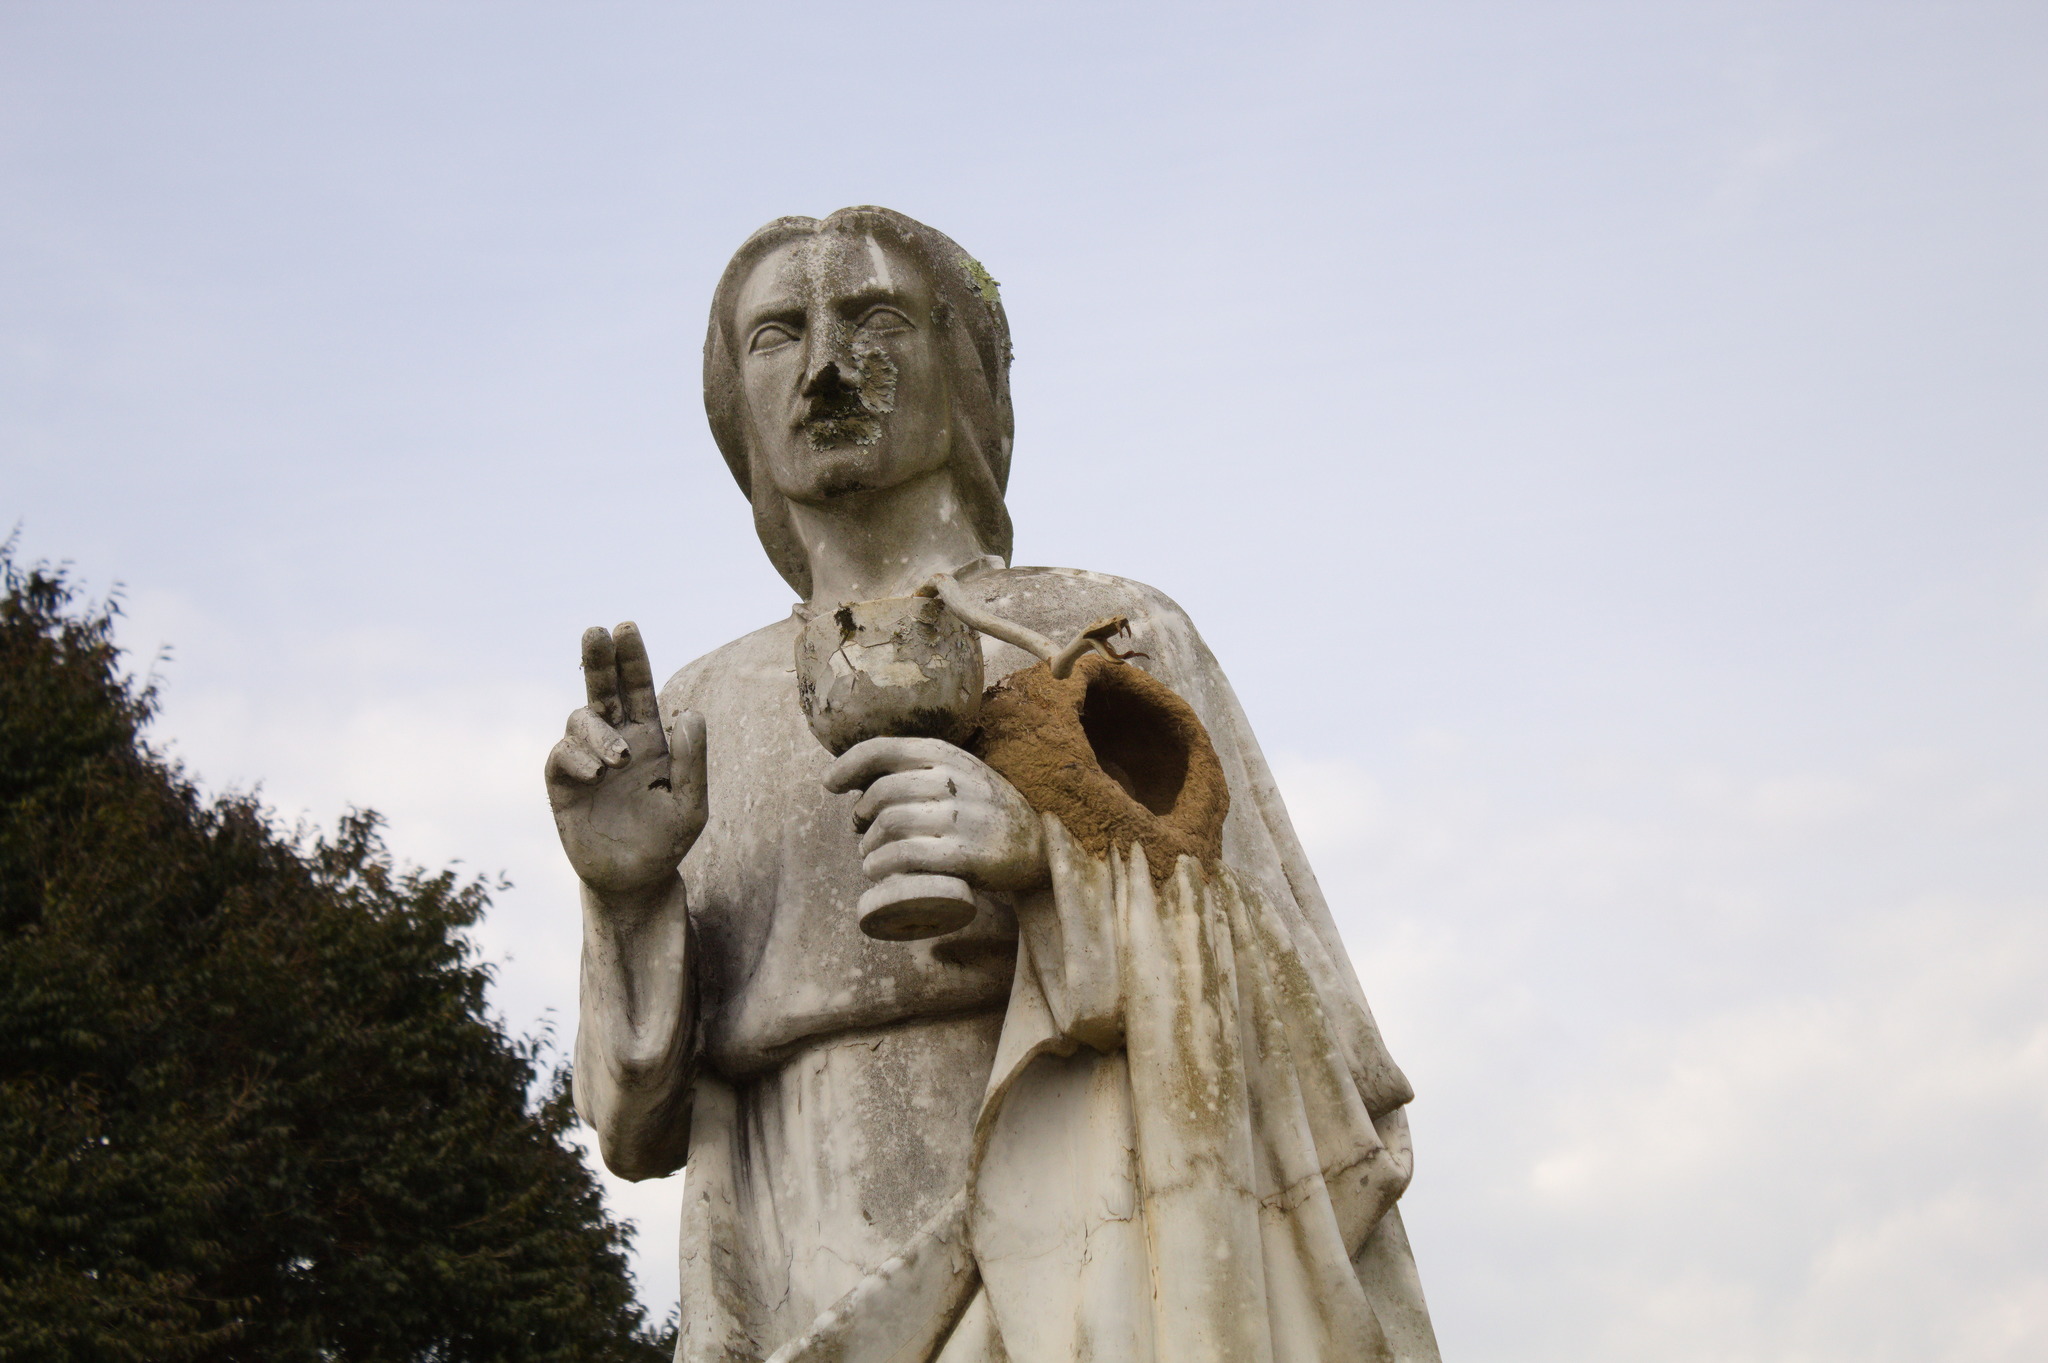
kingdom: Animalia
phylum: Chordata
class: Aves
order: Passeriformes
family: Furnariidae
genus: Furnarius
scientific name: Furnarius rufus
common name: Rufous hornero
